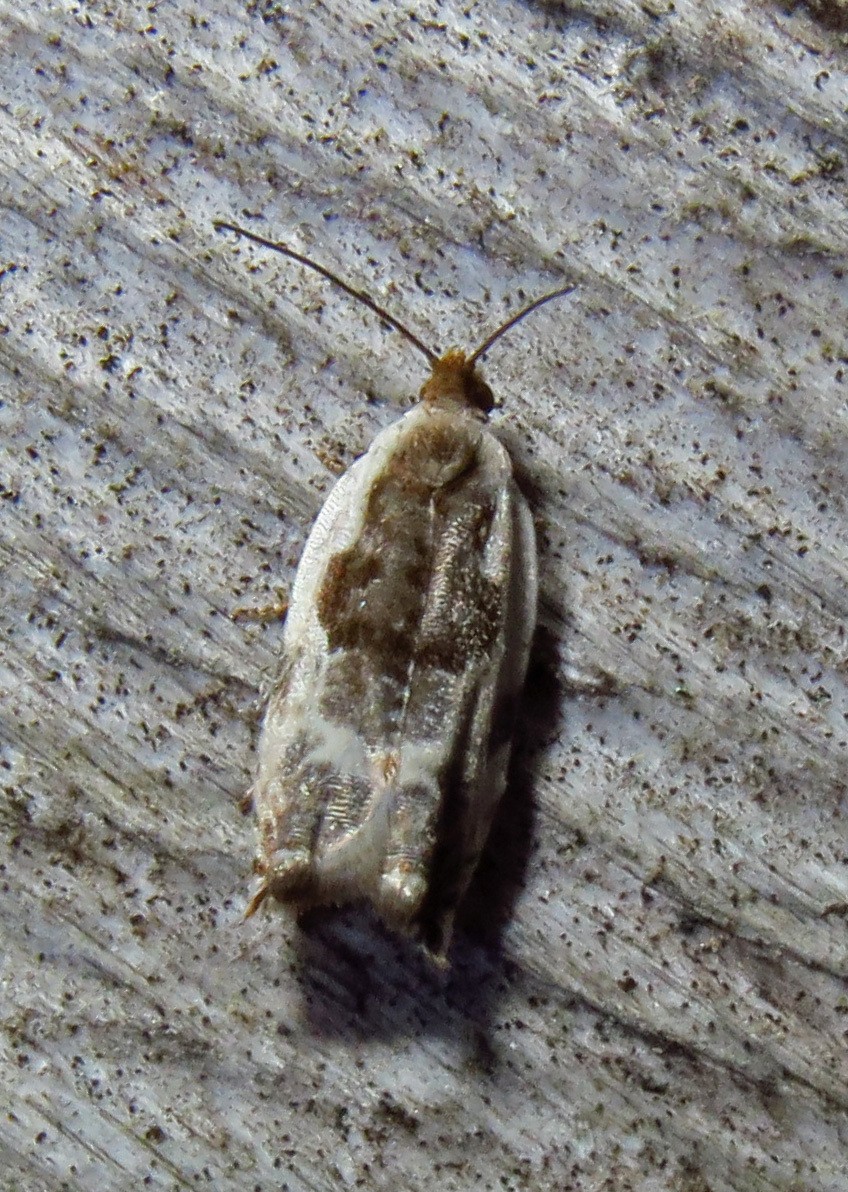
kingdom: Animalia
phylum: Arthropoda
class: Insecta
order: Lepidoptera
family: Tortricidae
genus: Ancylis
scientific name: Ancylis nubeculana
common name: Little cloud ancylis moth
